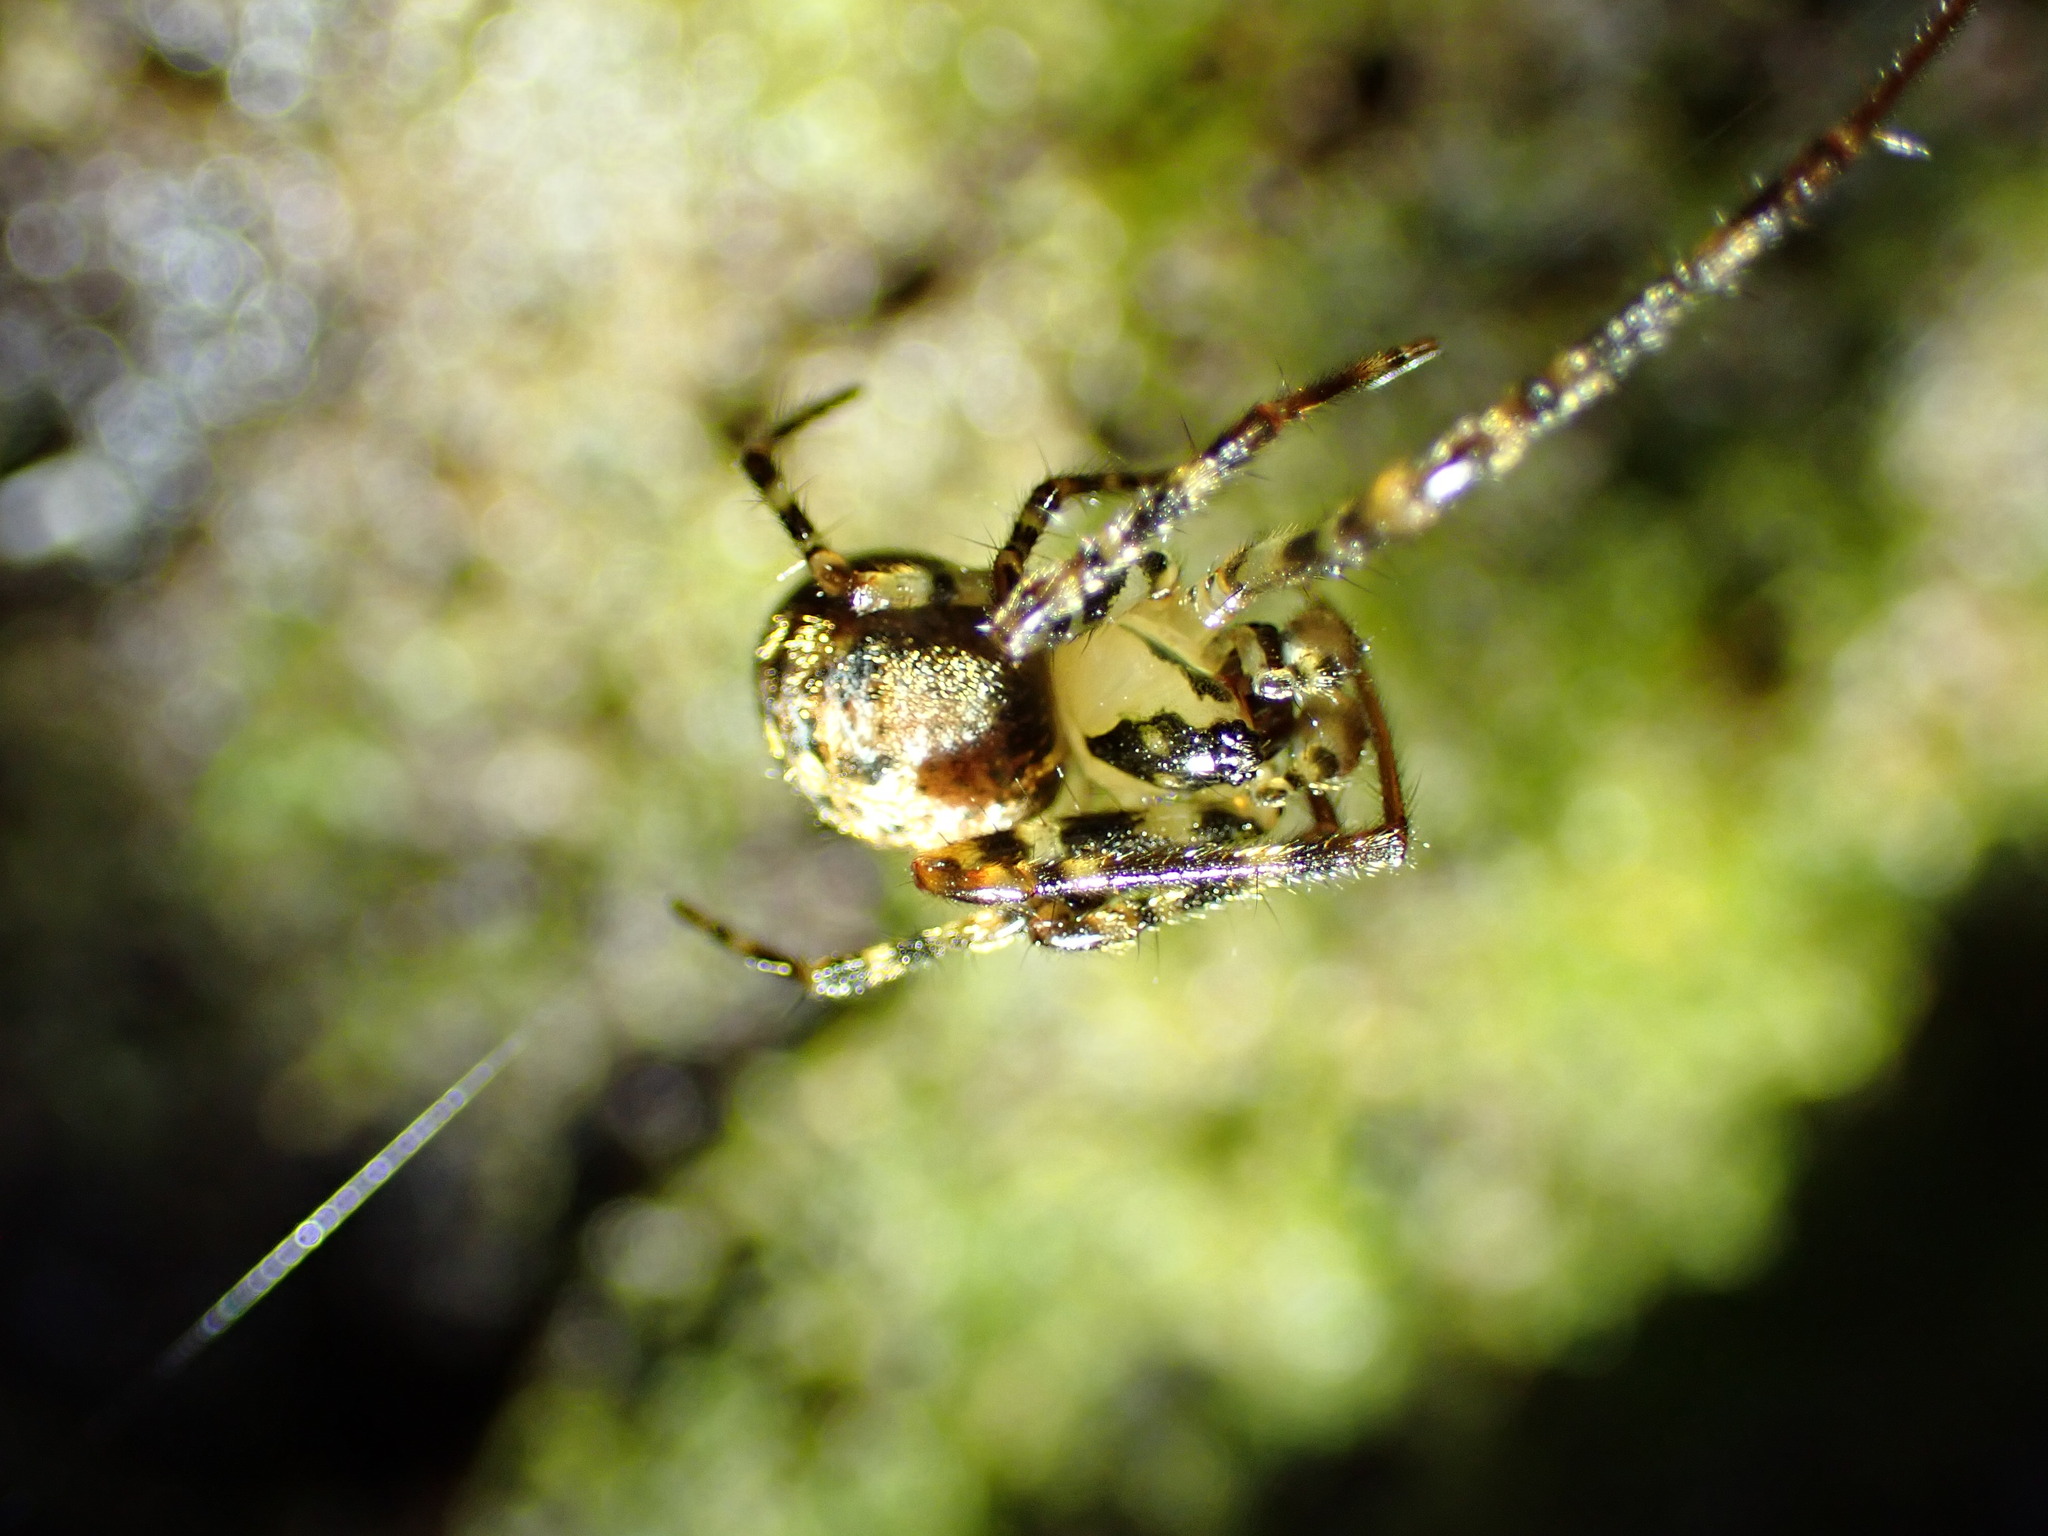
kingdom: Animalia
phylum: Arthropoda
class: Arachnida
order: Araneae
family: Tetragnathidae
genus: Tawhai
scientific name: Tawhai arborea
